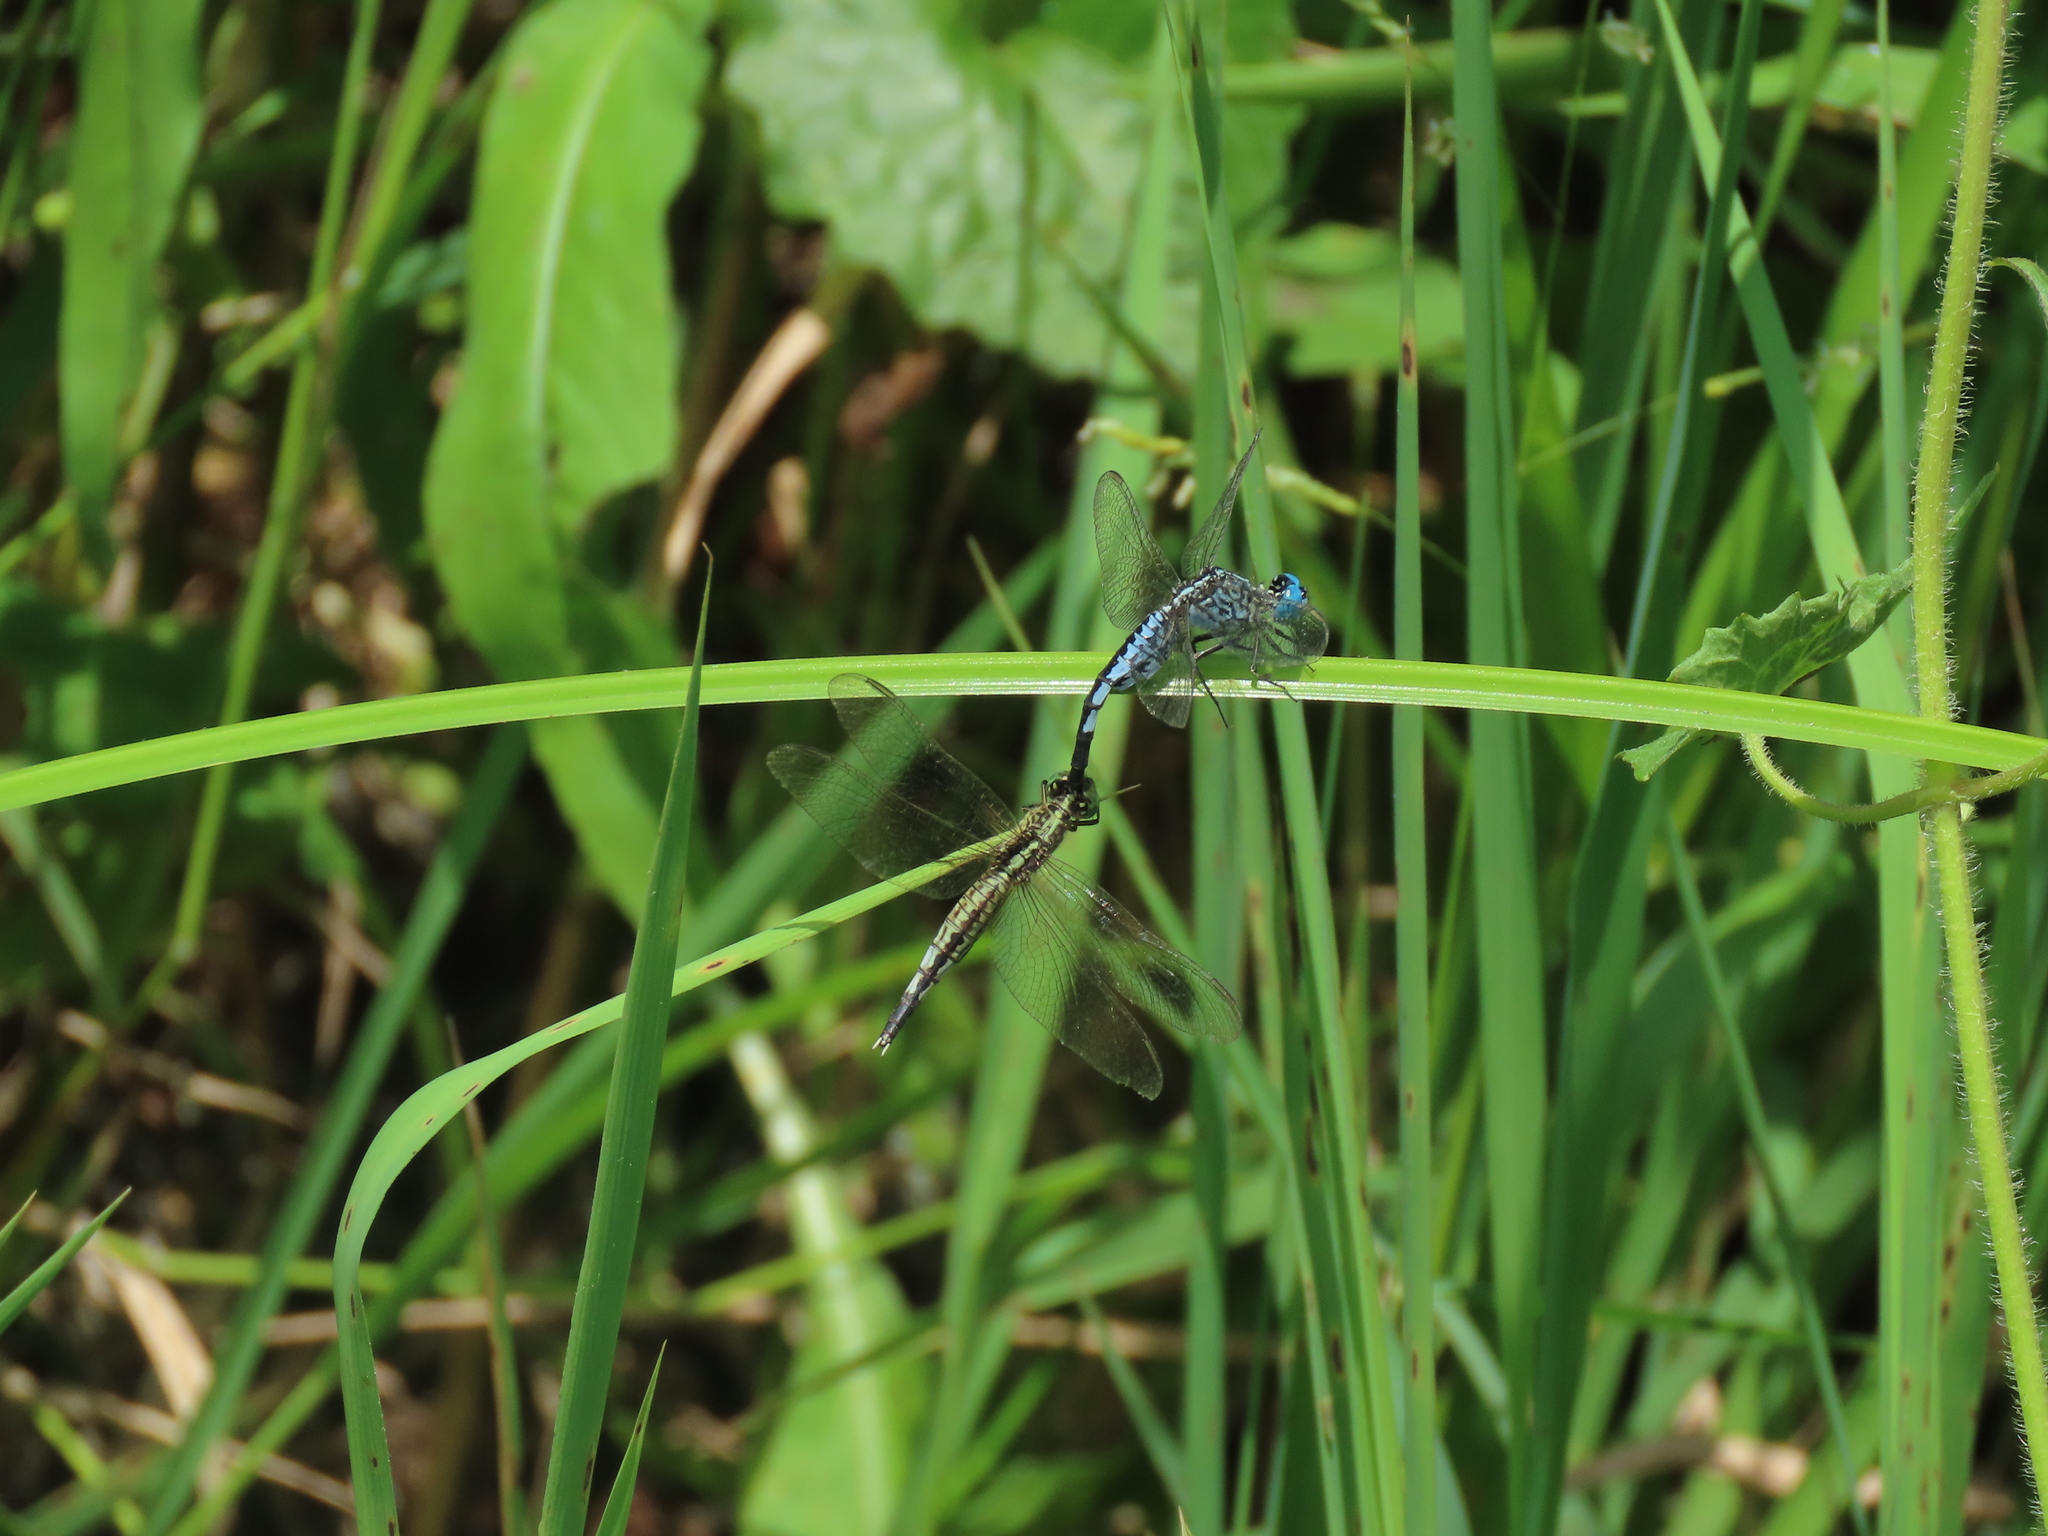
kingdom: Animalia
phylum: Arthropoda
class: Insecta
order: Odonata
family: Libellulidae
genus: Acisoma
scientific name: Acisoma panorpoides
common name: Asian pintail
